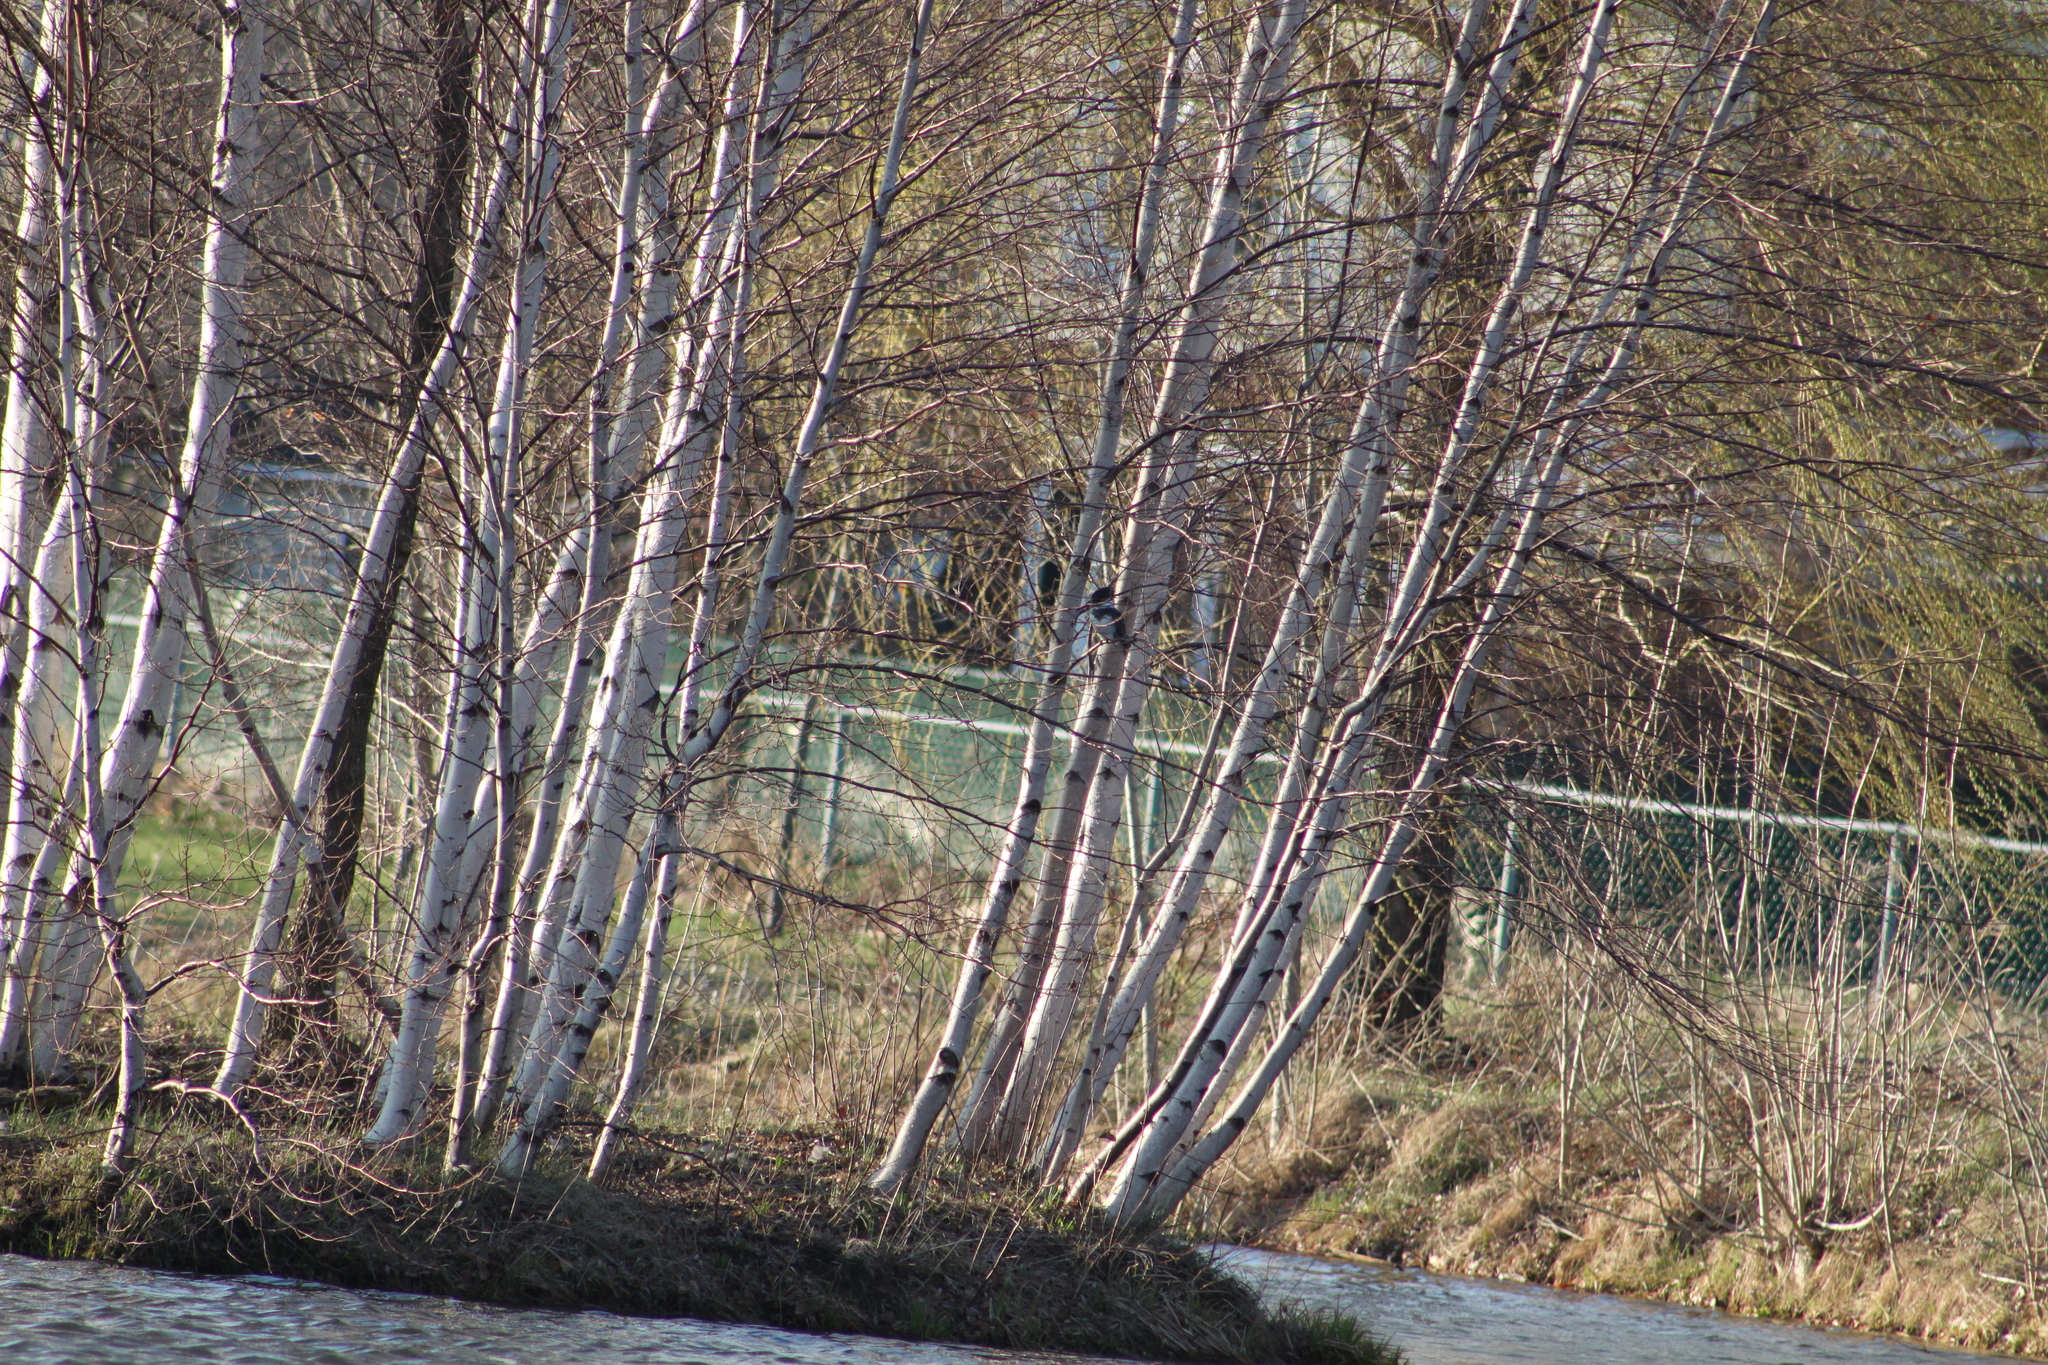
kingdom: Animalia
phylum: Chordata
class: Aves
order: Coraciiformes
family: Alcedinidae
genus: Megaceryle
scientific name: Megaceryle alcyon
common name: Belted kingfisher
